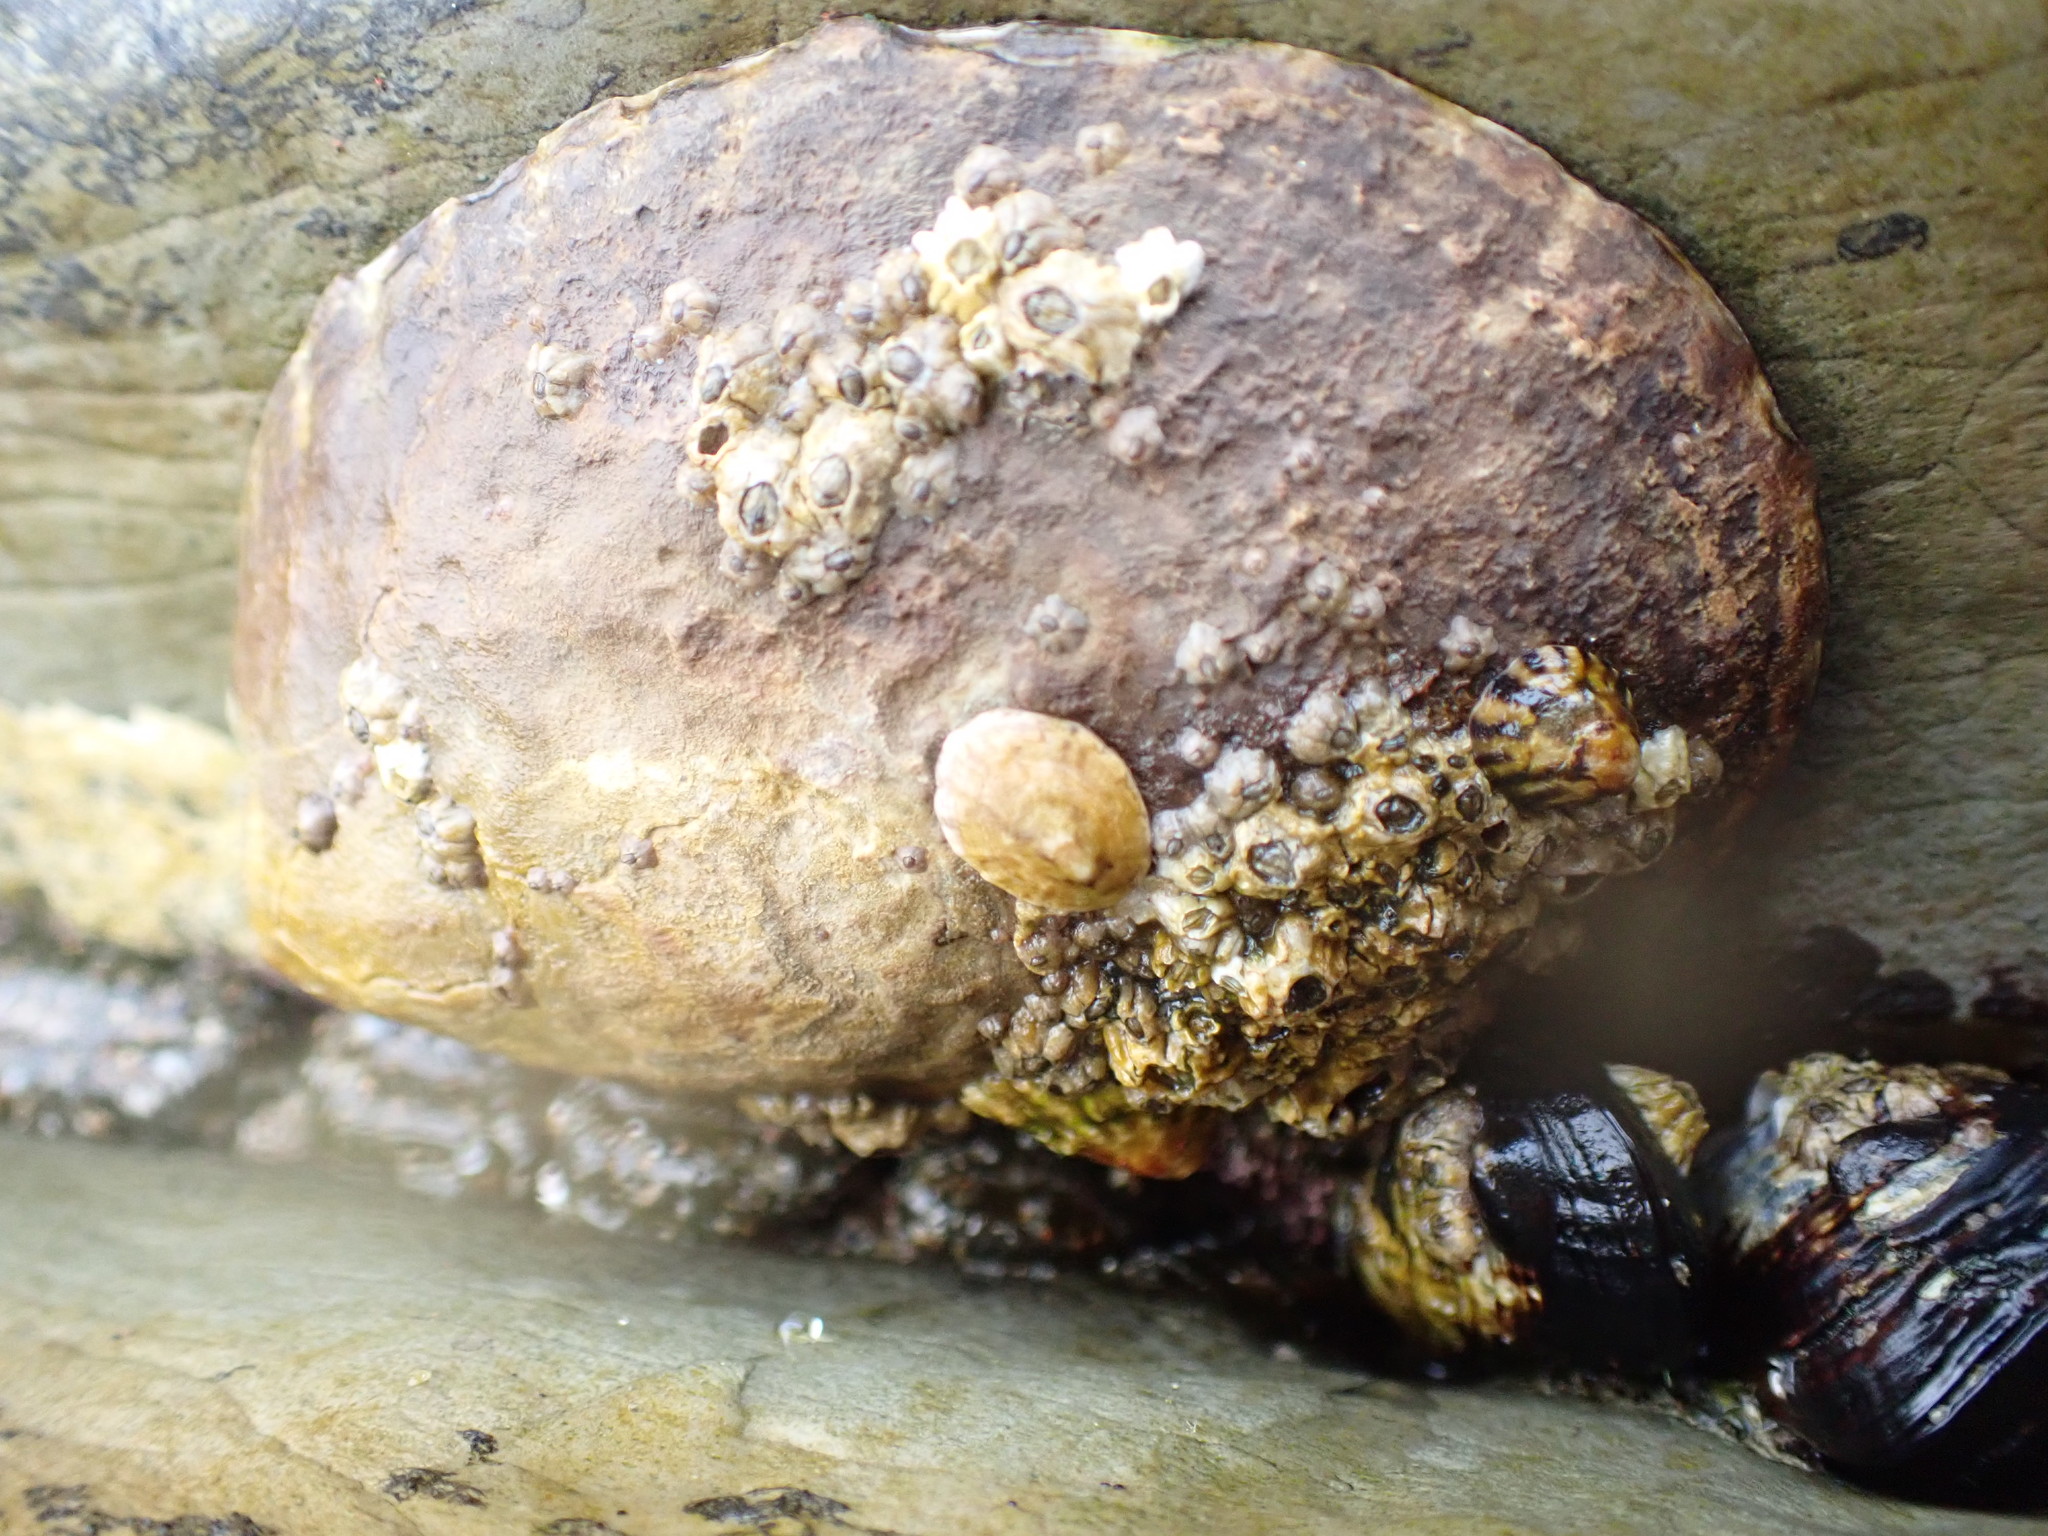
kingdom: Animalia
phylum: Mollusca
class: Gastropoda
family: Lottiidae
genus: Lottia
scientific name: Lottia gigantea
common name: Owl limpet
